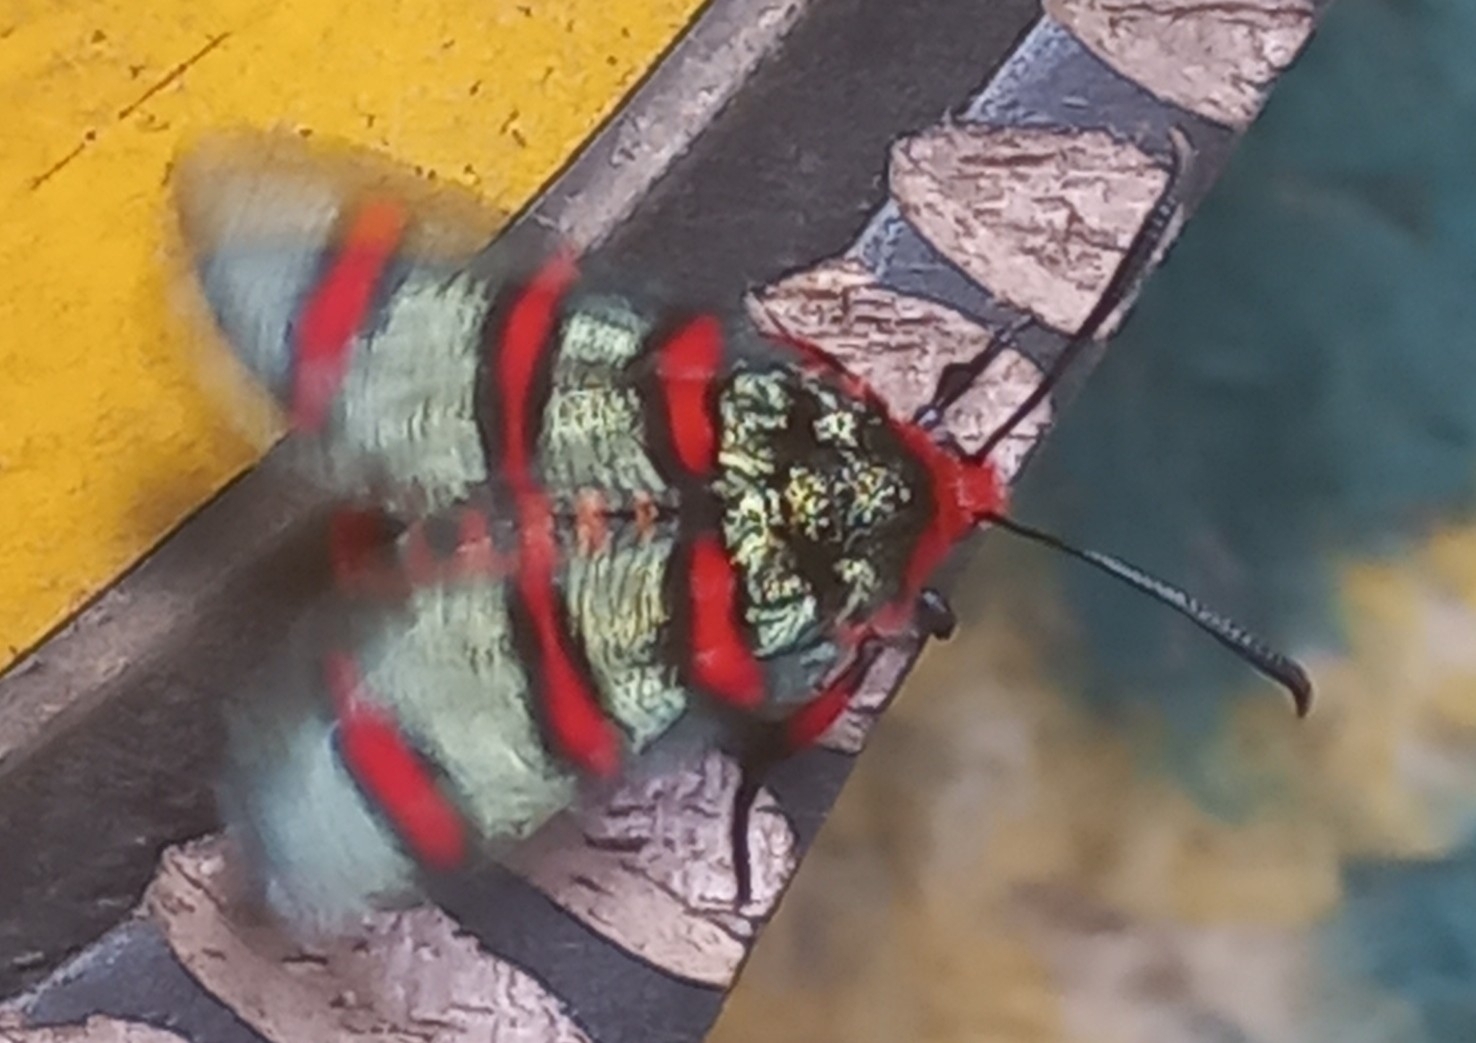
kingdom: Animalia
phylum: Arthropoda
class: Insecta
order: Lepidoptera
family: Thyrididae
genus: Arniocera
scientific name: Arniocera erythropyga
